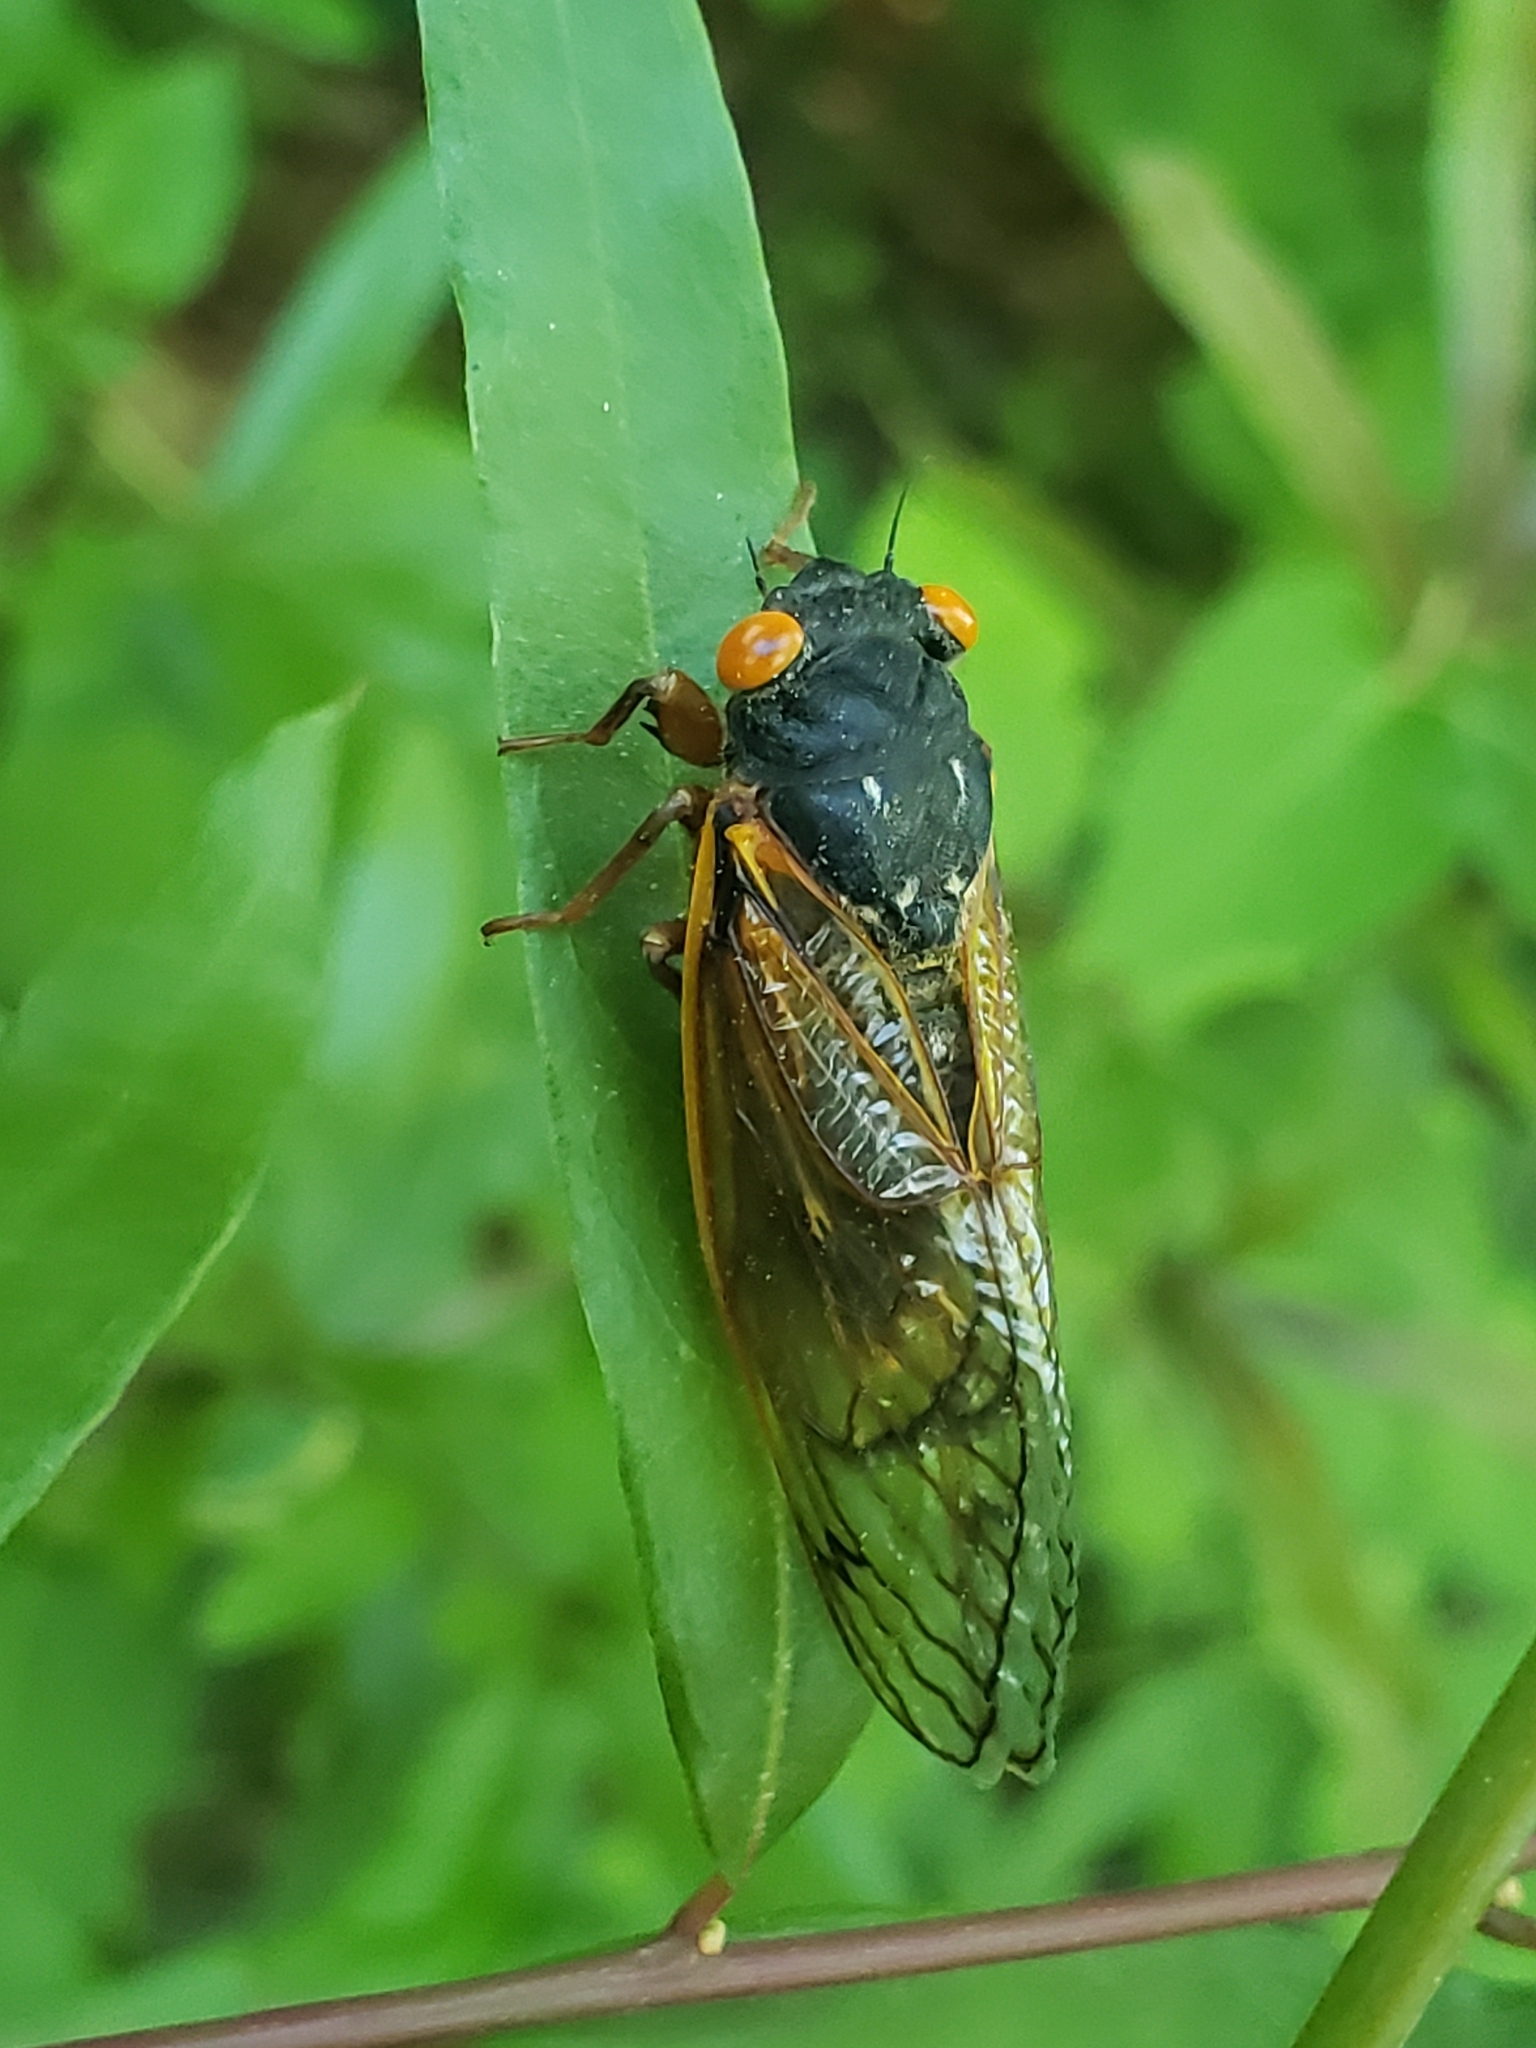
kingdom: Animalia
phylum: Arthropoda
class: Insecta
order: Hemiptera
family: Cicadidae
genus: Magicicada
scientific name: Magicicada
